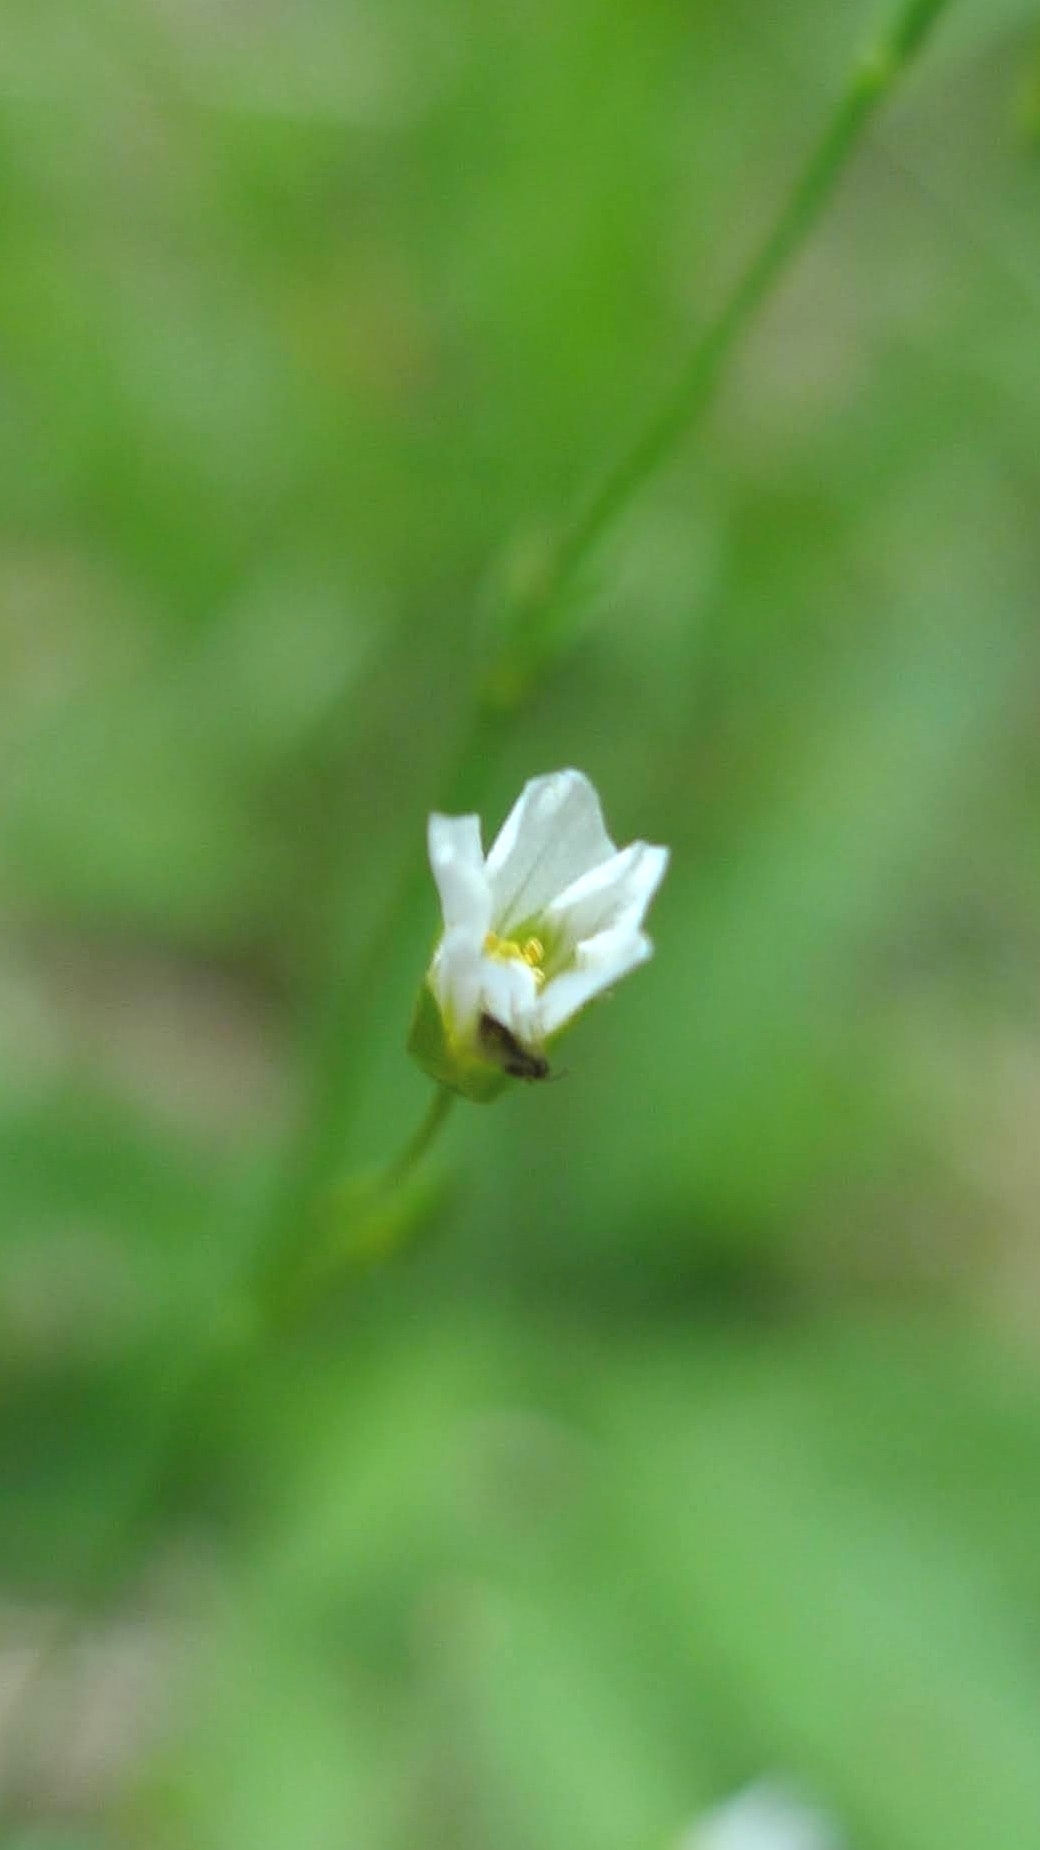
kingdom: Plantae
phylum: Tracheophyta
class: Magnoliopsida
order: Malpighiales
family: Linaceae
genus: Linum
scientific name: Linum catharticum
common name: Fairy flax
